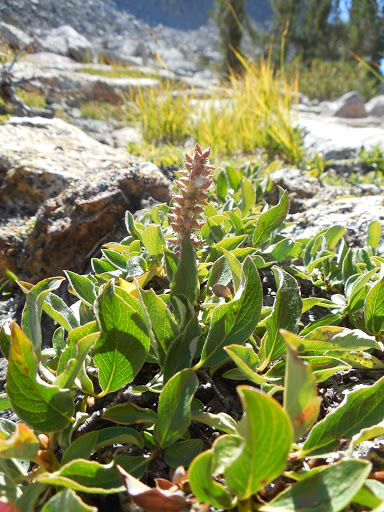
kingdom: Plantae
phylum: Tracheophyta
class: Magnoliopsida
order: Malpighiales
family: Salicaceae
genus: Salix
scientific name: Salix petrophila
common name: Rocky mountain willow
